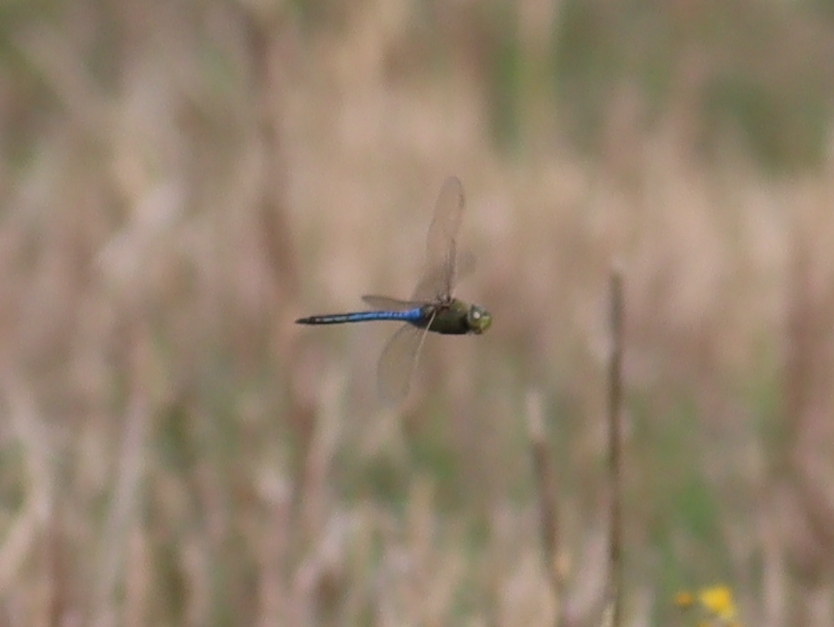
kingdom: Animalia
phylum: Arthropoda
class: Insecta
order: Odonata
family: Aeshnidae
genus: Anax
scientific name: Anax junius
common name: Common green darner
